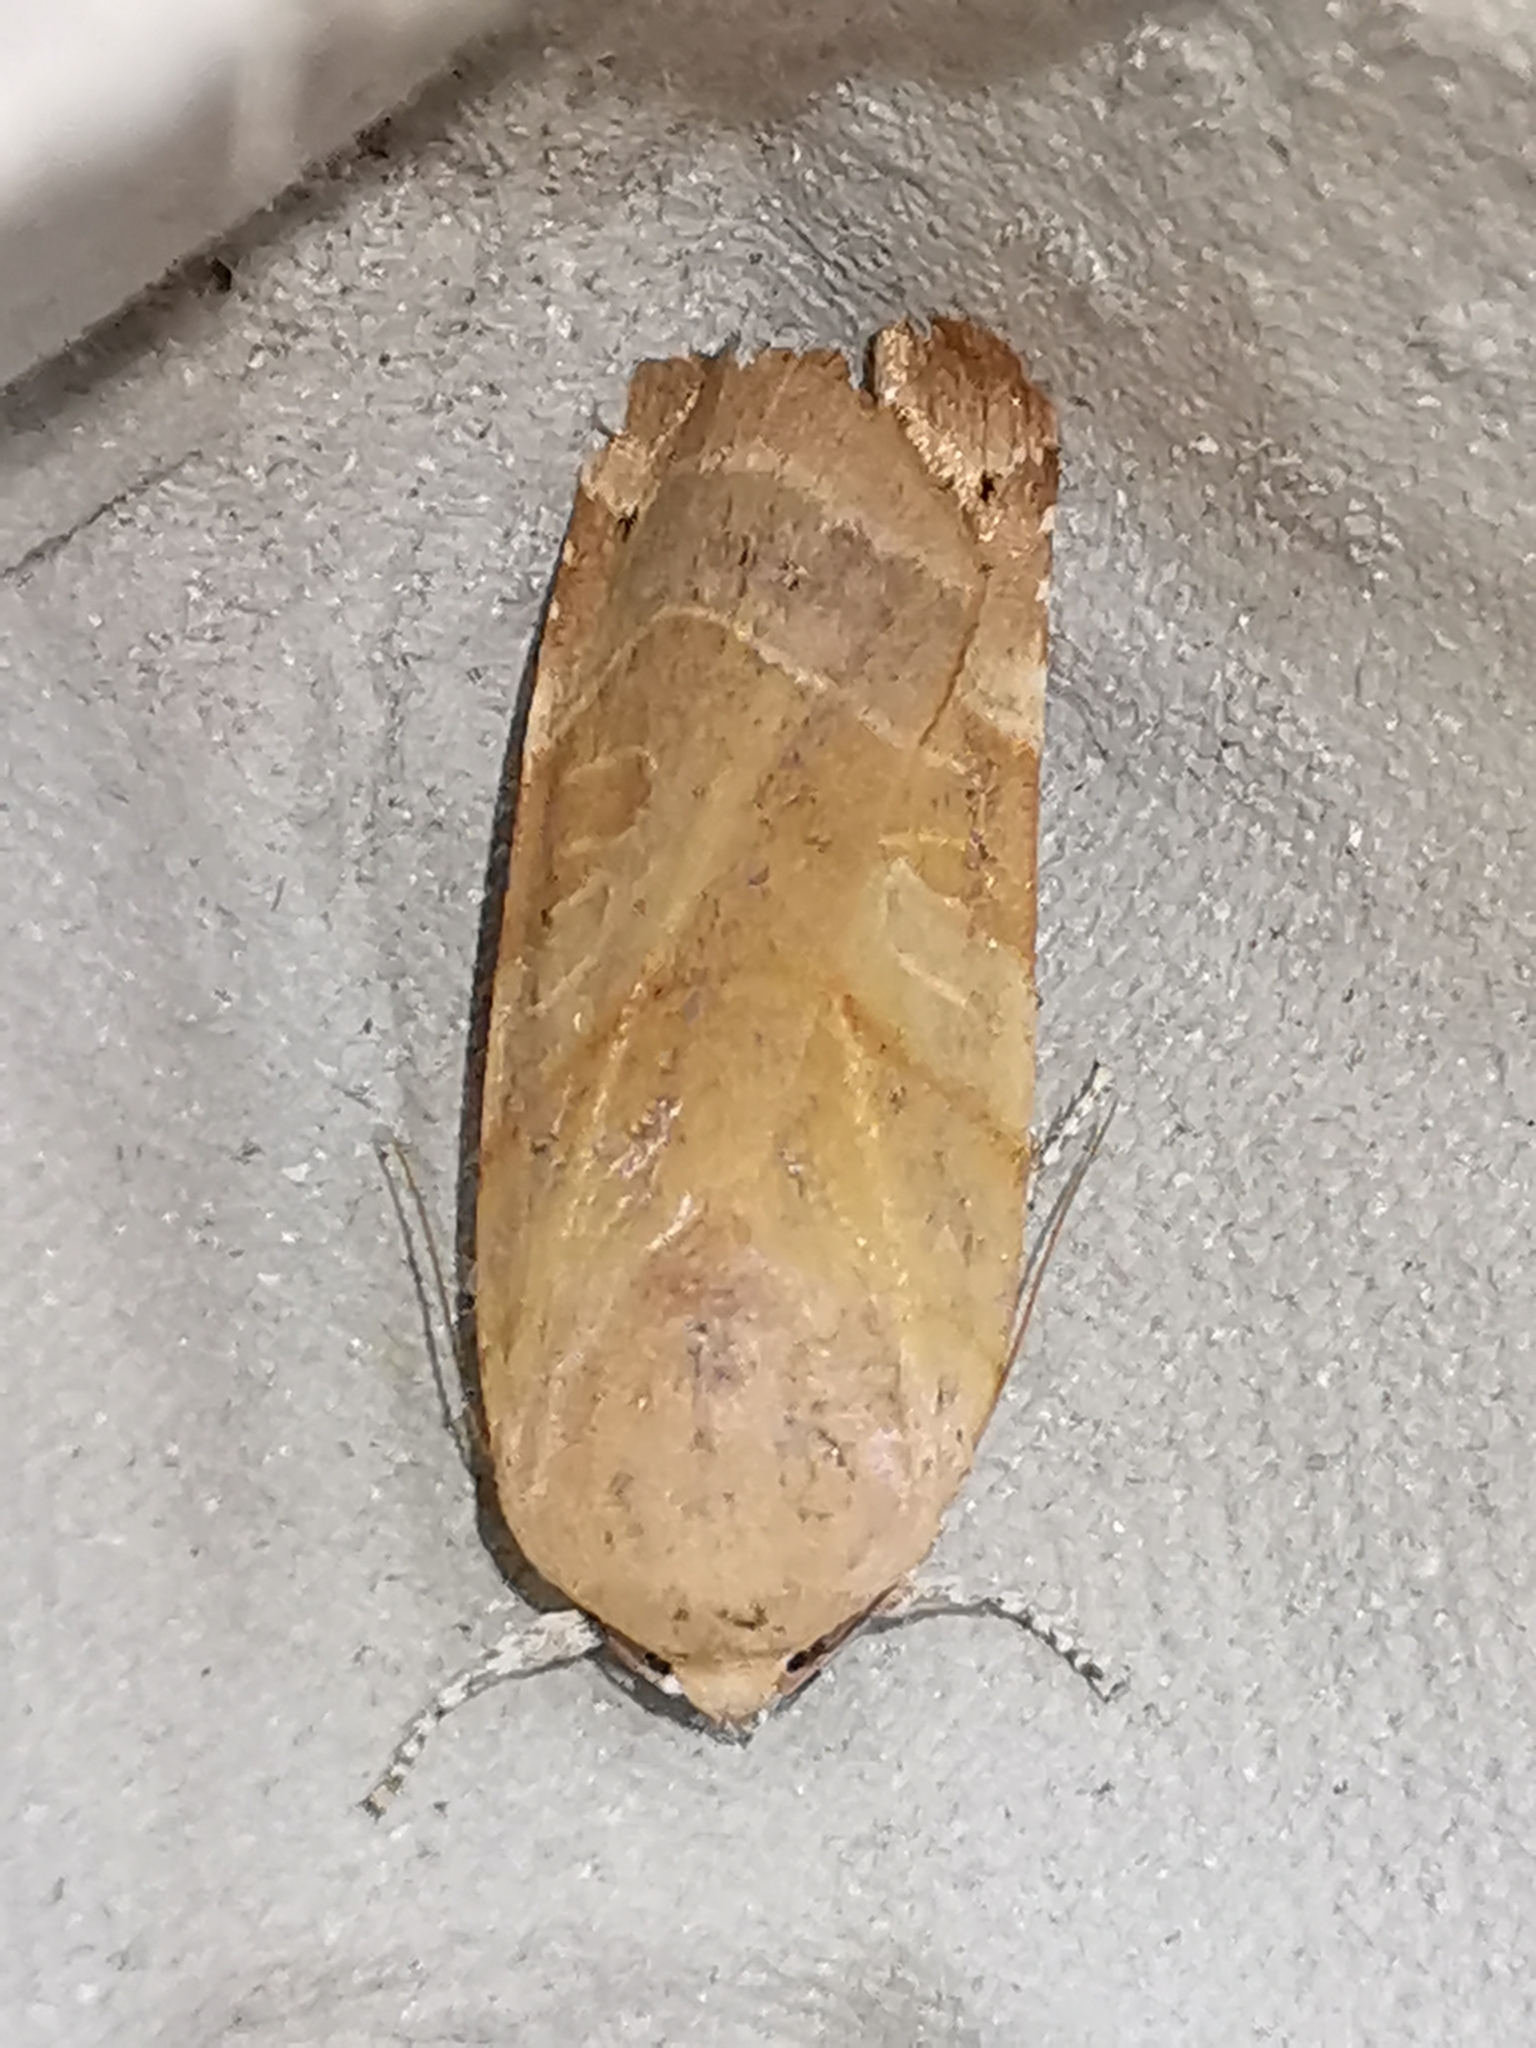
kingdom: Animalia
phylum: Arthropoda
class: Insecta
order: Lepidoptera
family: Noctuidae
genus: Noctua
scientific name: Noctua fimbriata
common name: Broad-bordered yellow underwing
